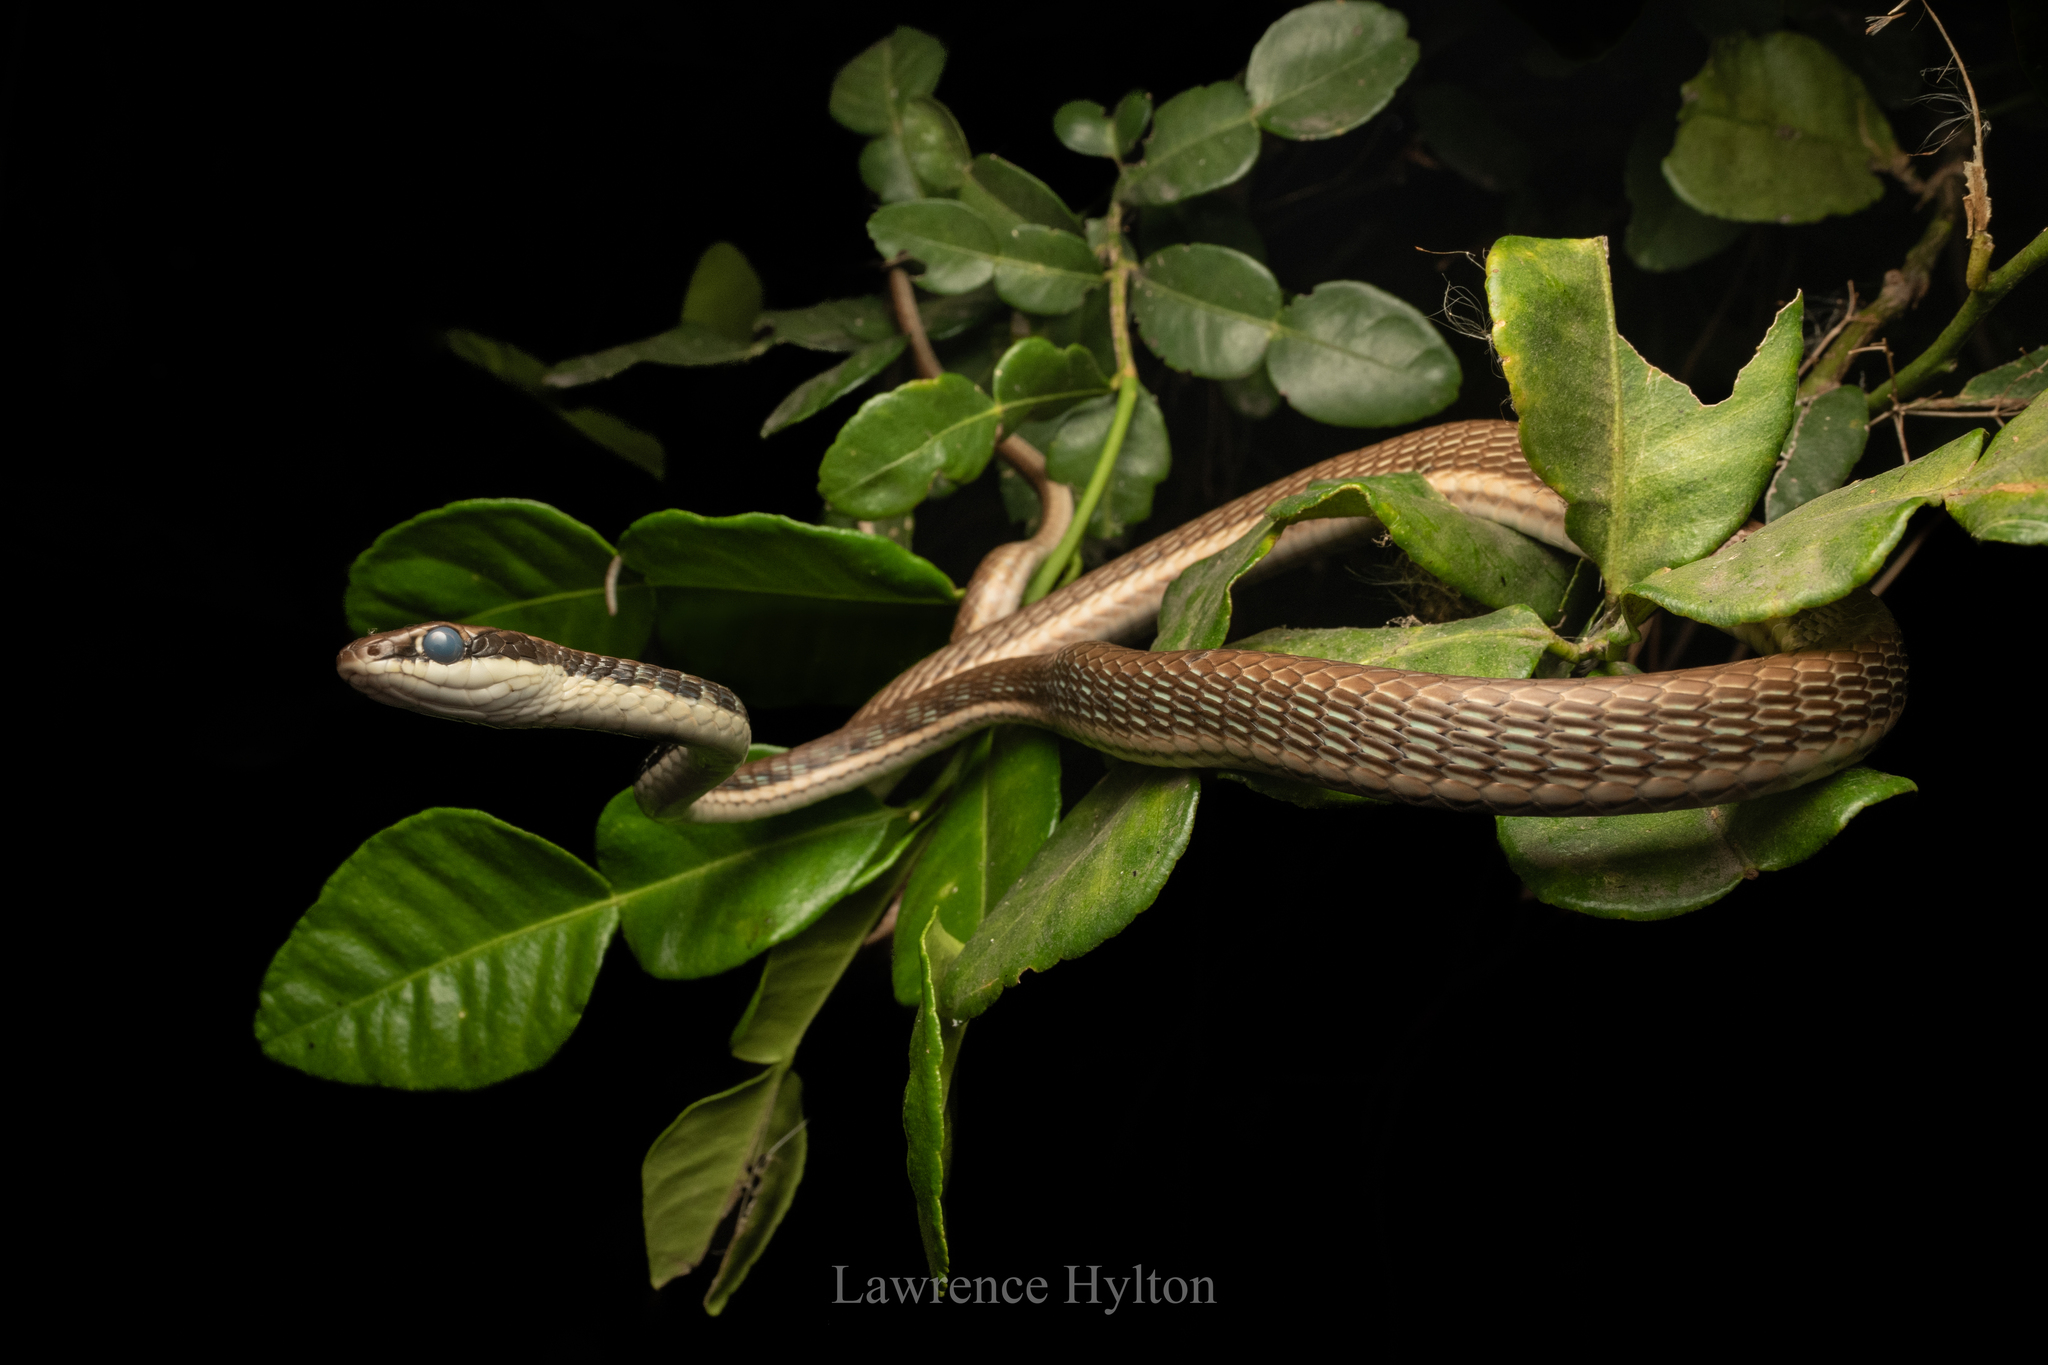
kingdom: Animalia
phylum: Chordata
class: Squamata
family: Colubridae
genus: Dendrelaphis
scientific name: Dendrelaphis pictus
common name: Indonesian bronze-back
